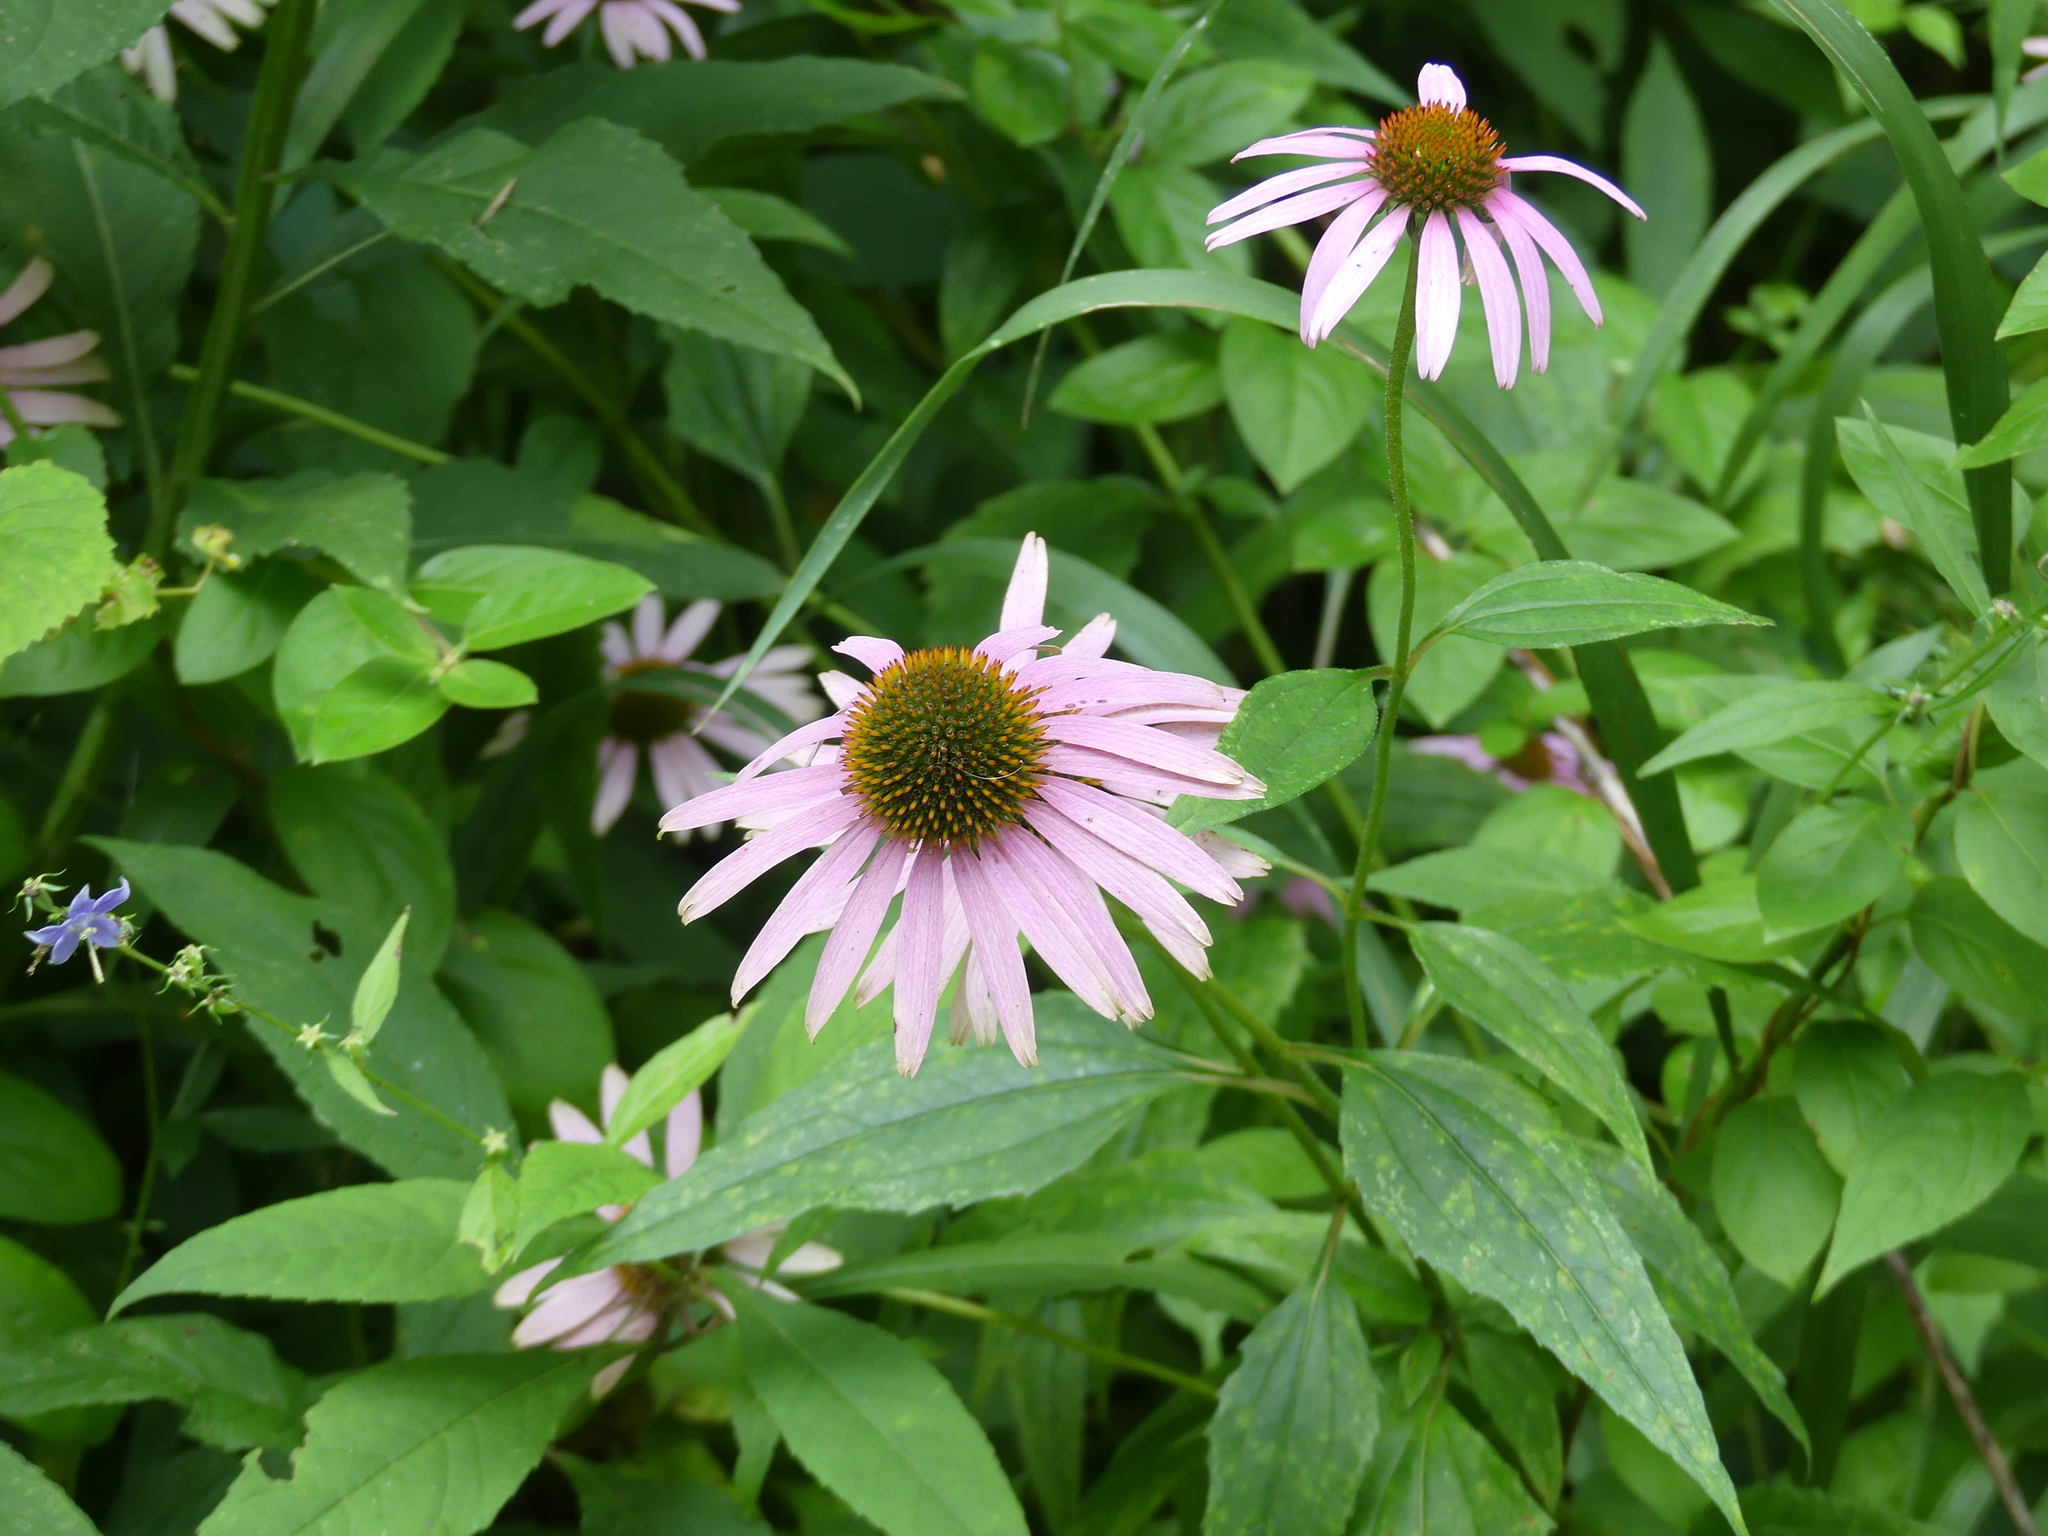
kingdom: Plantae
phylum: Tracheophyta
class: Magnoliopsida
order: Asterales
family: Asteraceae
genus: Echinacea
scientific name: Echinacea purpurea
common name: Broad-leaved purple coneflower
